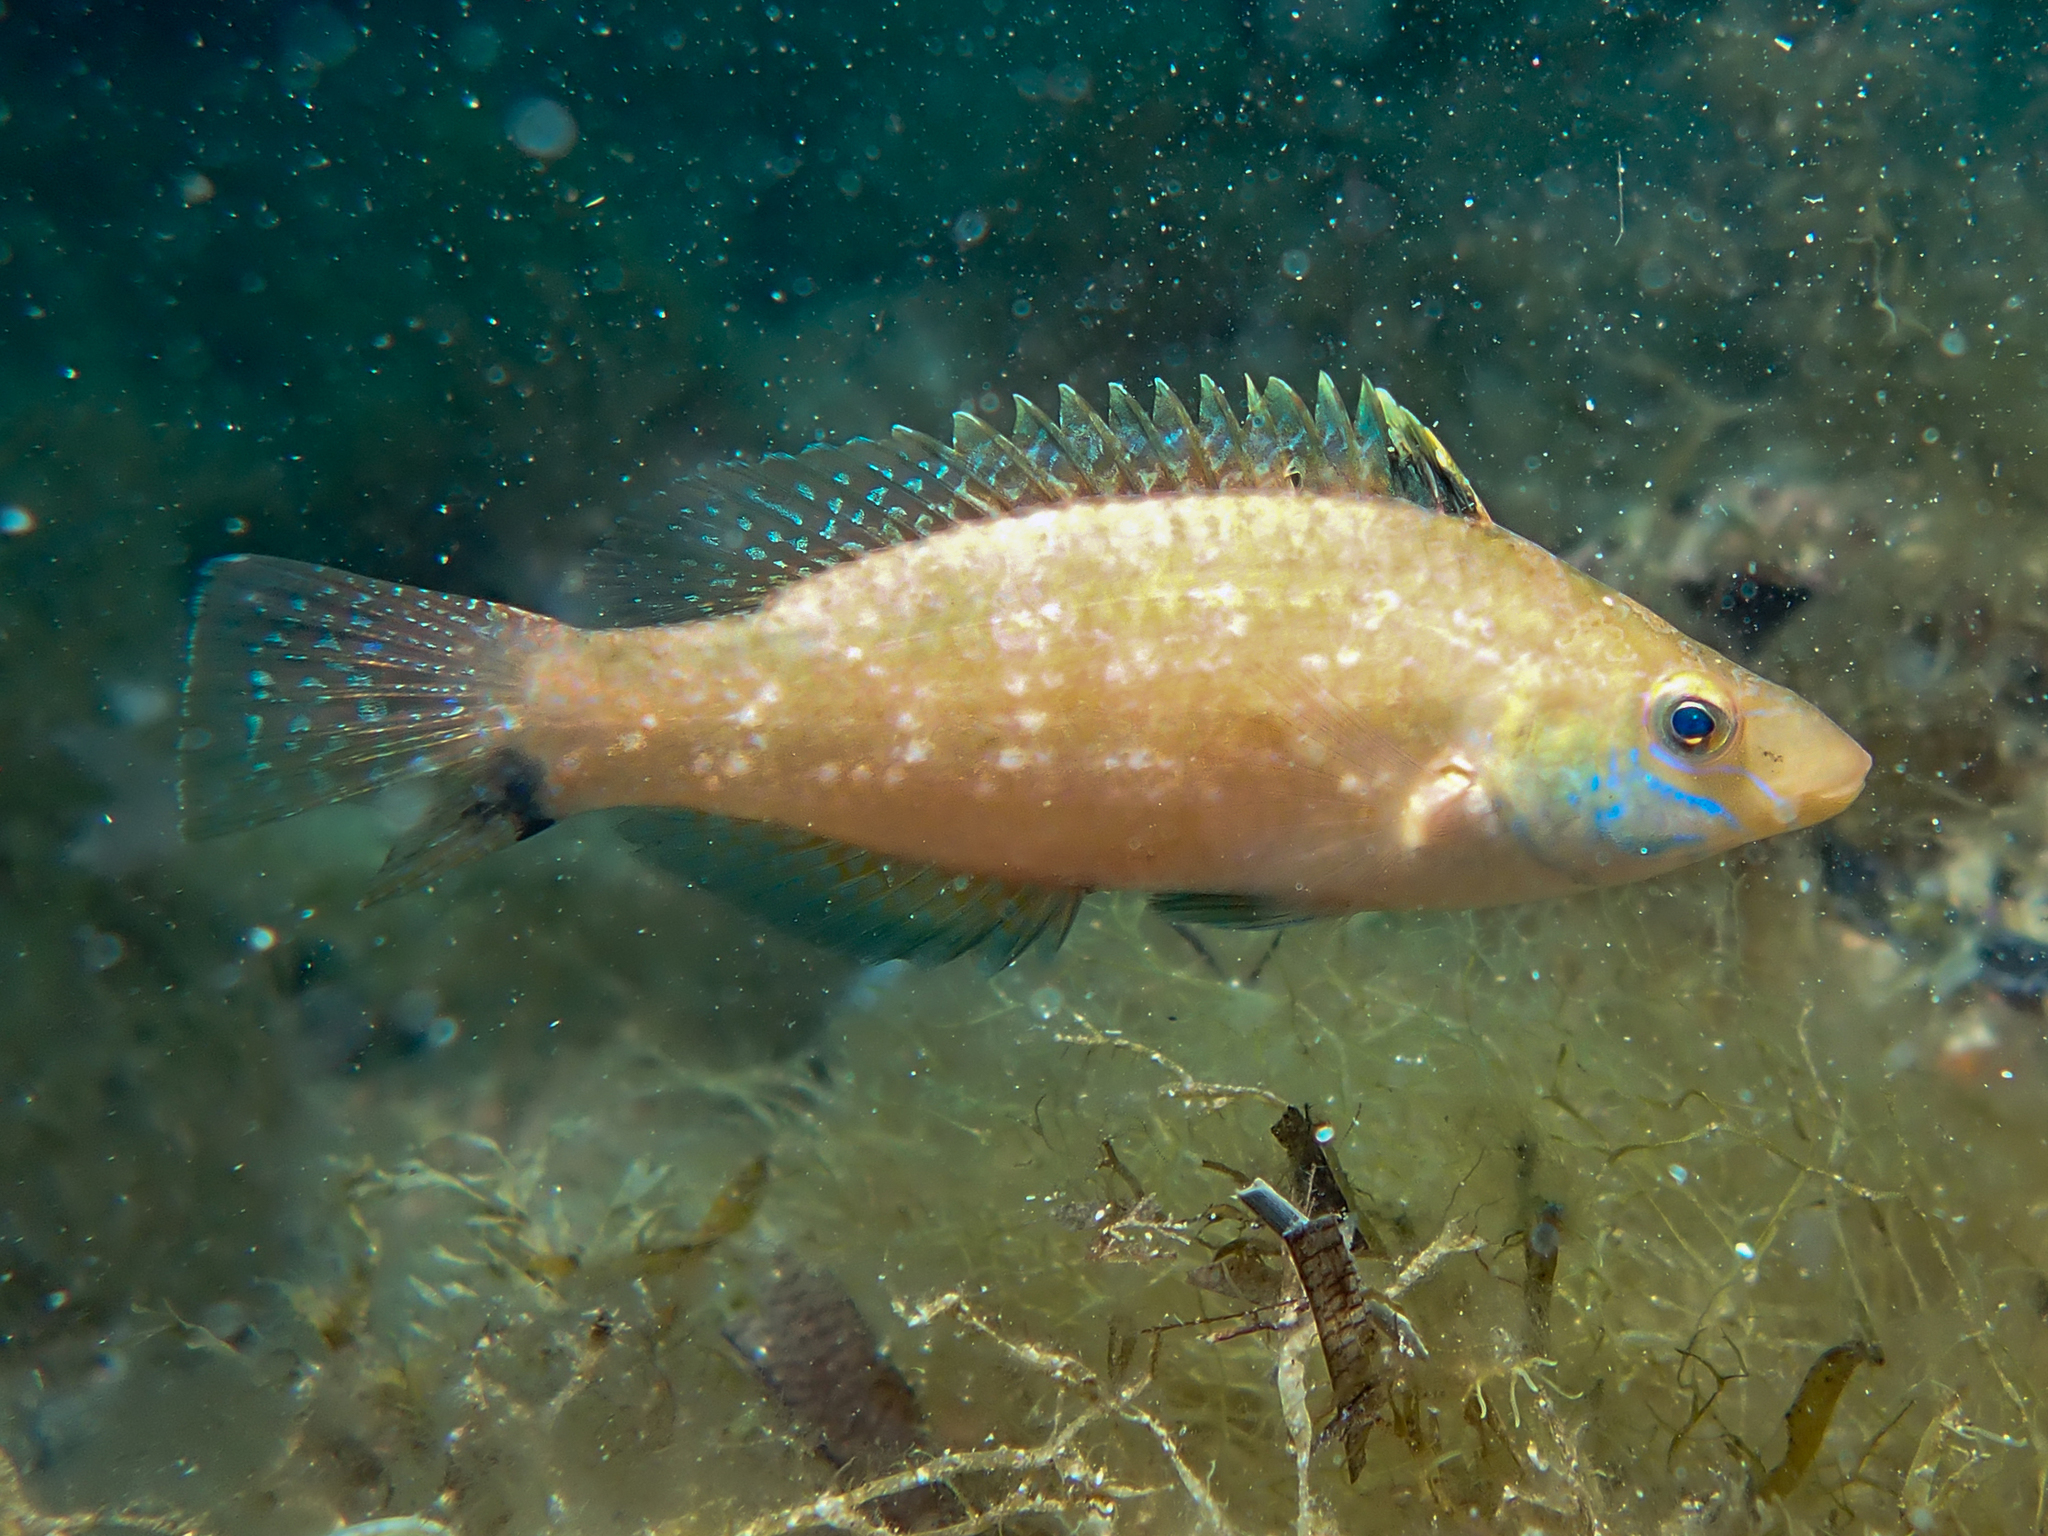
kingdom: Animalia
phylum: Chordata
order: Perciformes
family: Labridae
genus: Symphodus
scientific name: Symphodus cinereus
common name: Grey wrasse
